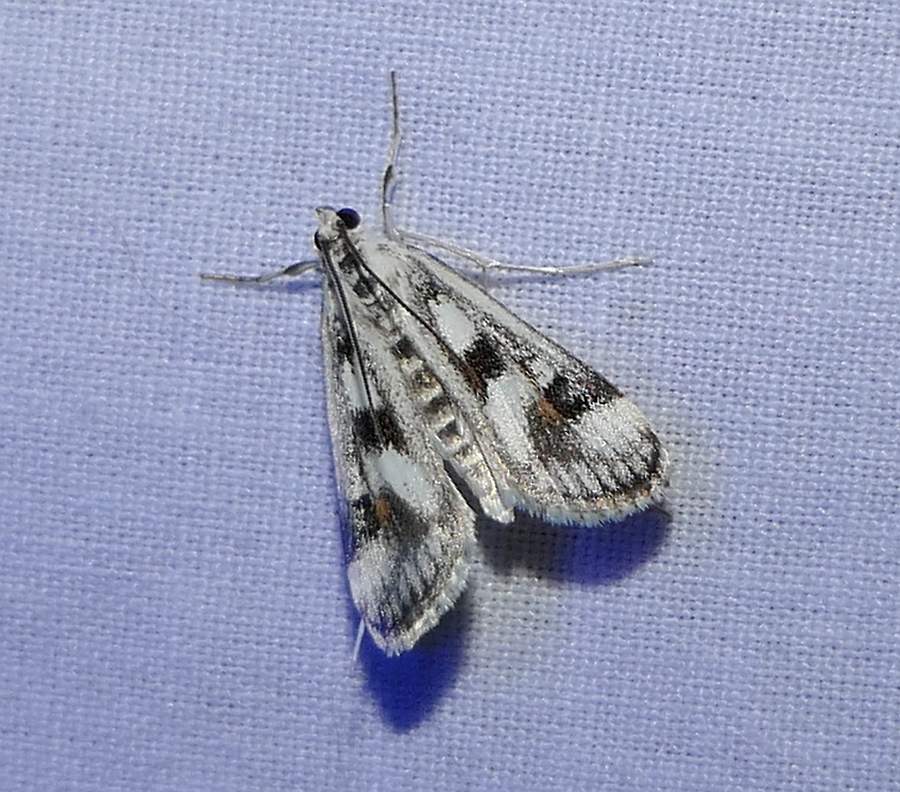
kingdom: Animalia
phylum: Arthropoda
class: Insecta
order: Lepidoptera
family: Crambidae
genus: Parapoynx
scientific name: Parapoynx maculalis
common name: Polymorphic pondweed moth
